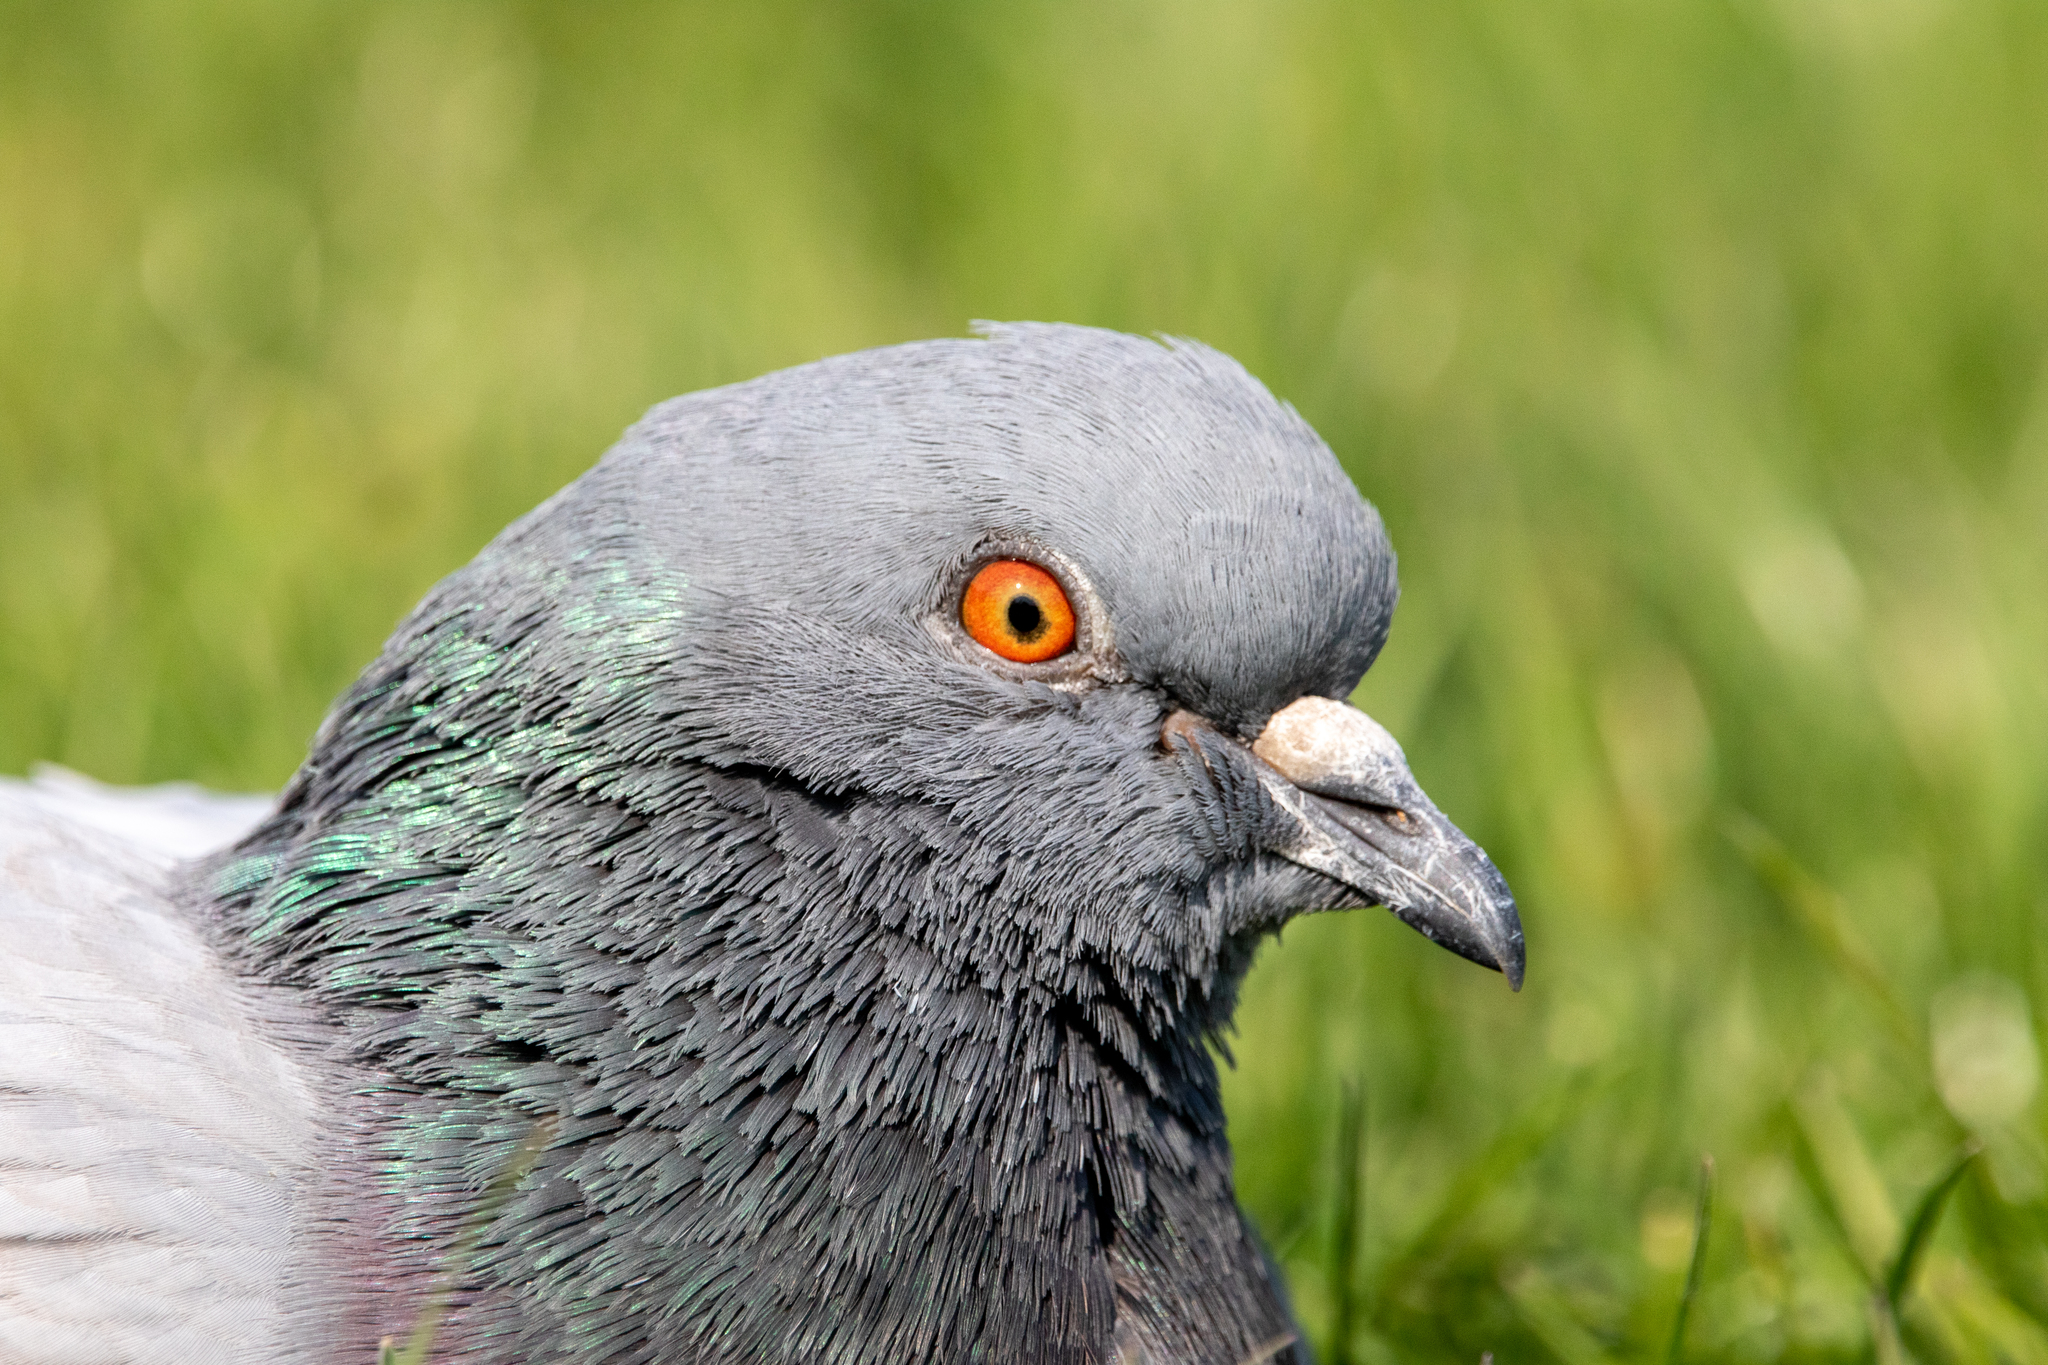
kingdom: Animalia
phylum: Chordata
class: Aves
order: Columbiformes
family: Columbidae
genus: Columba
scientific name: Columba livia
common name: Rock pigeon
